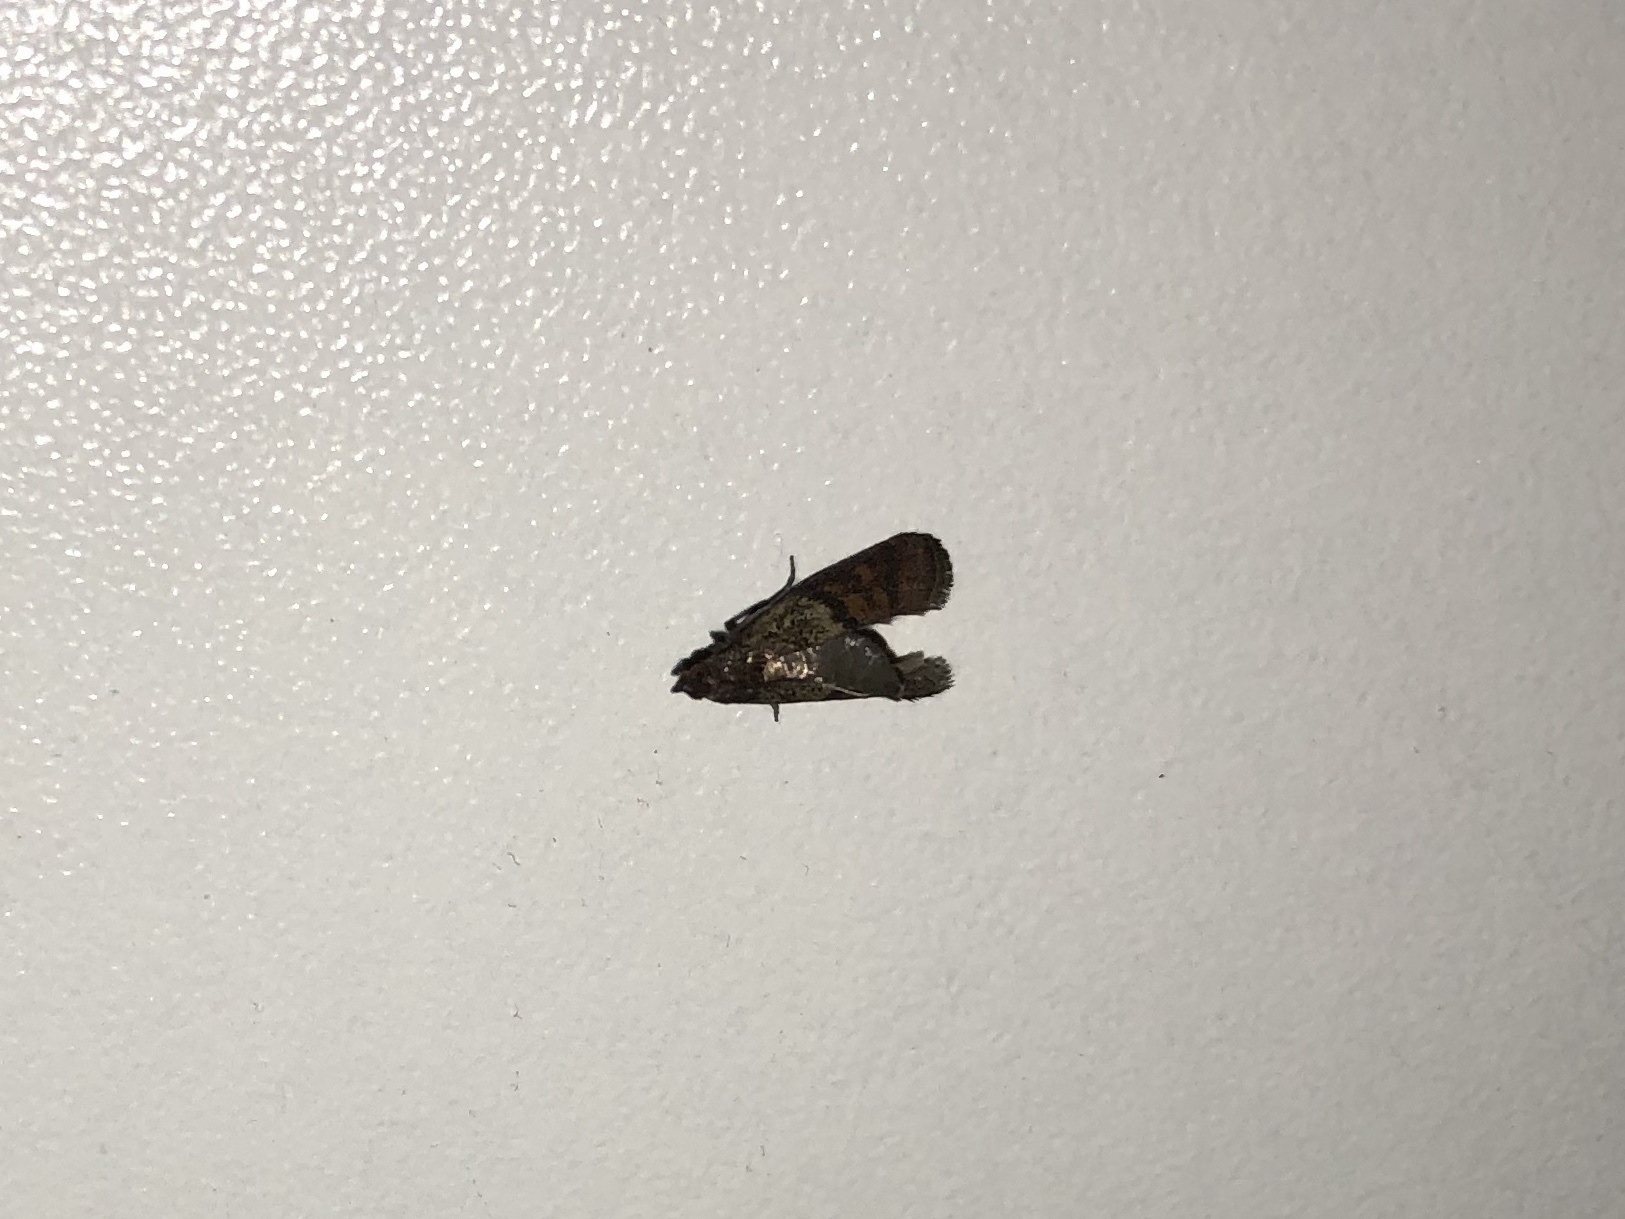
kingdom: Animalia
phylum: Arthropoda
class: Insecta
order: Lepidoptera
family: Pyralidae
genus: Plodia
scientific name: Plodia interpunctella
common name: Indian meal moth
